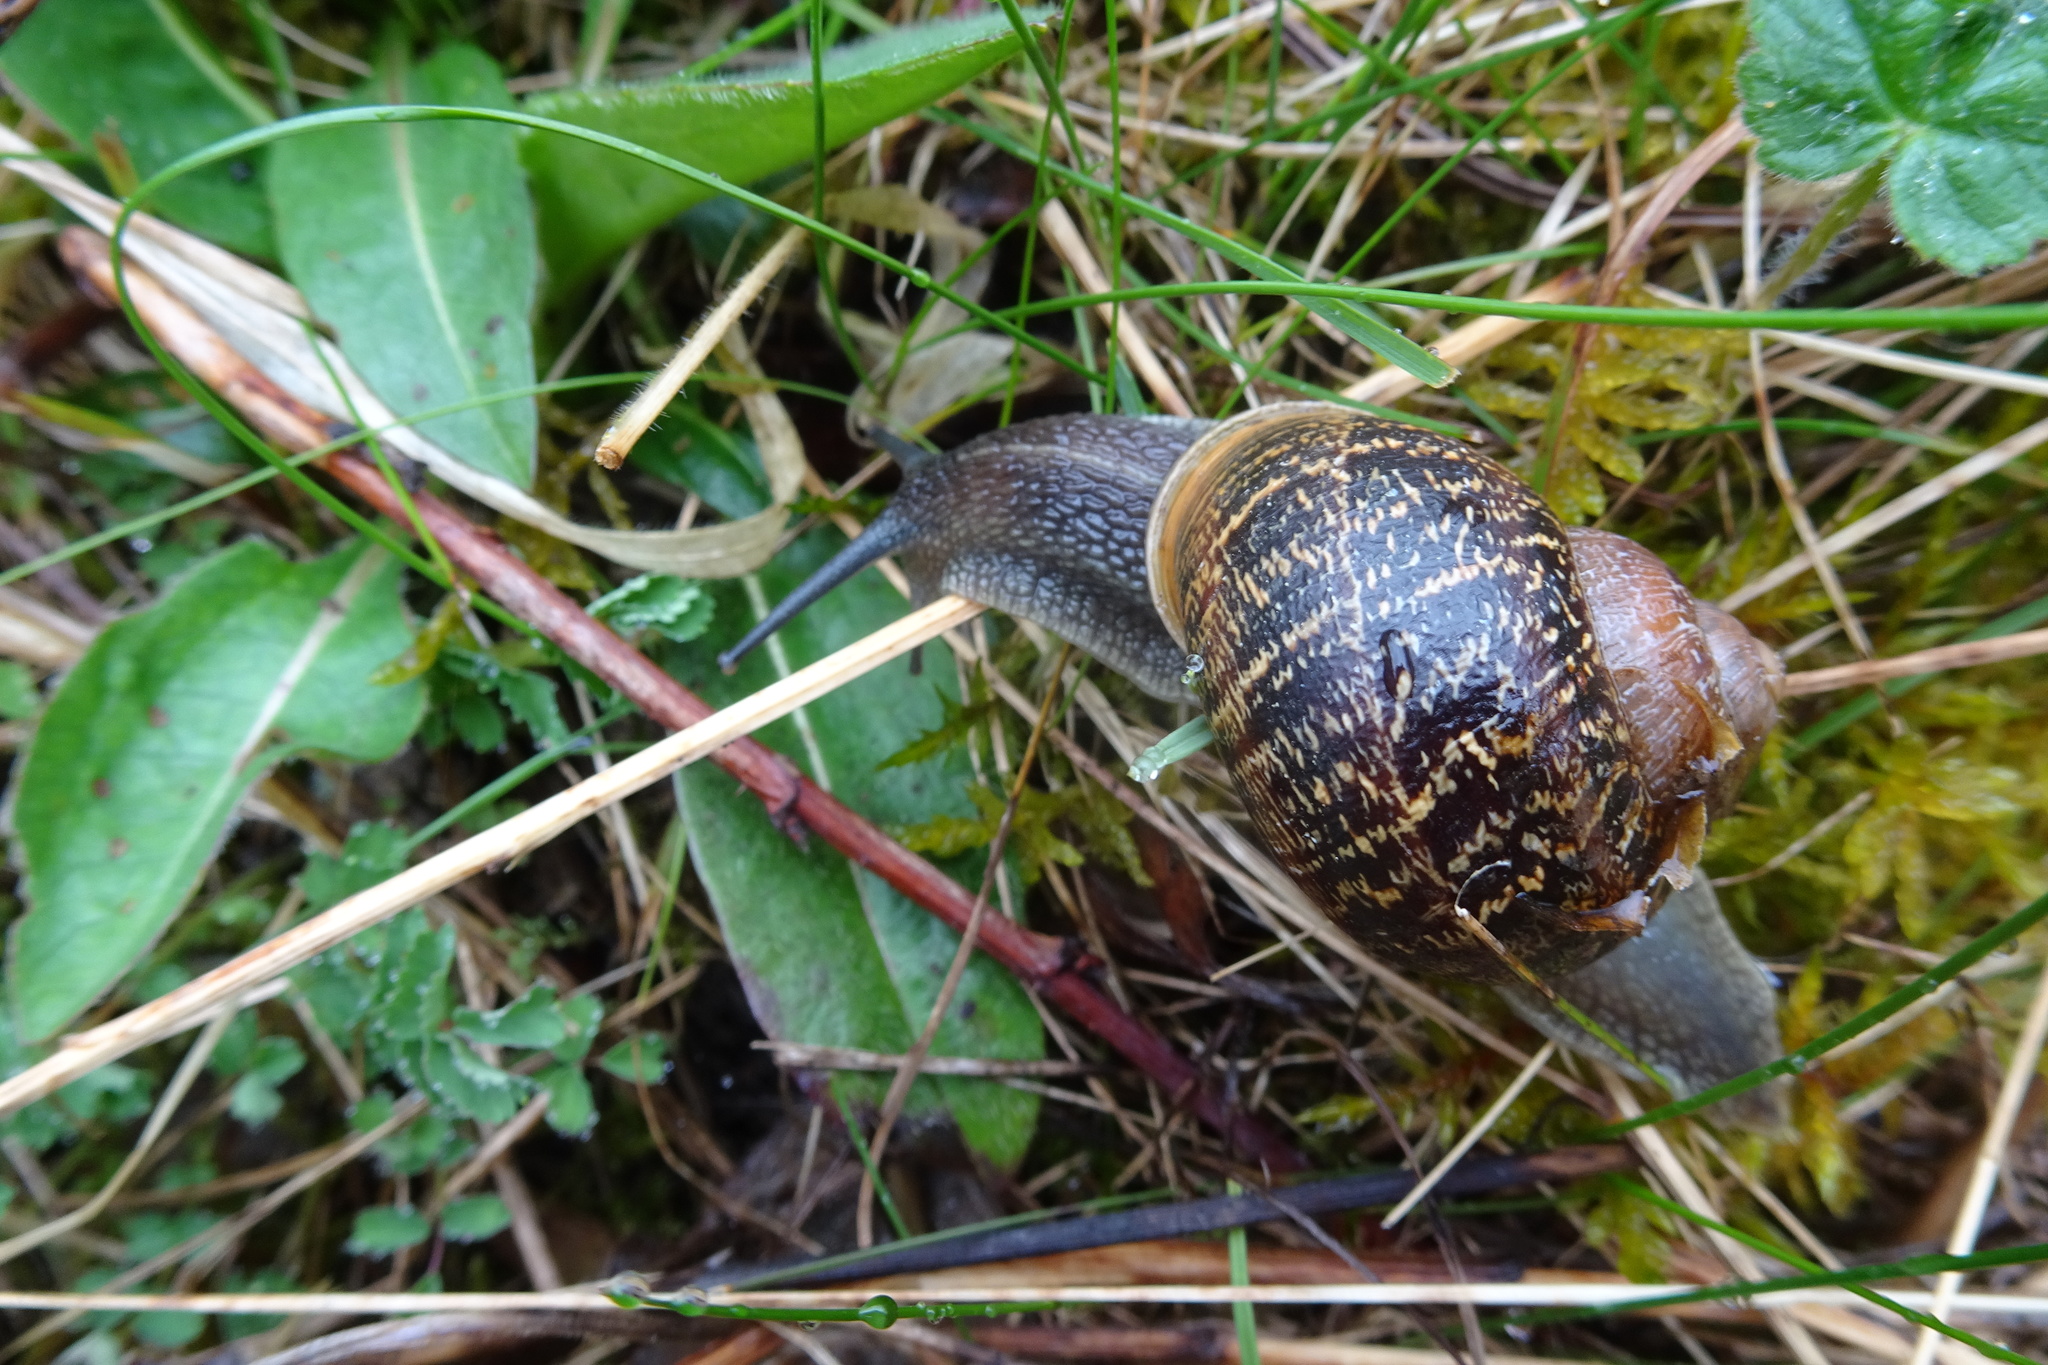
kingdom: Animalia
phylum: Mollusca
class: Gastropoda
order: Stylommatophora
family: Helicidae
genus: Cornu
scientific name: Cornu aspersum
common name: Brown garden snail
